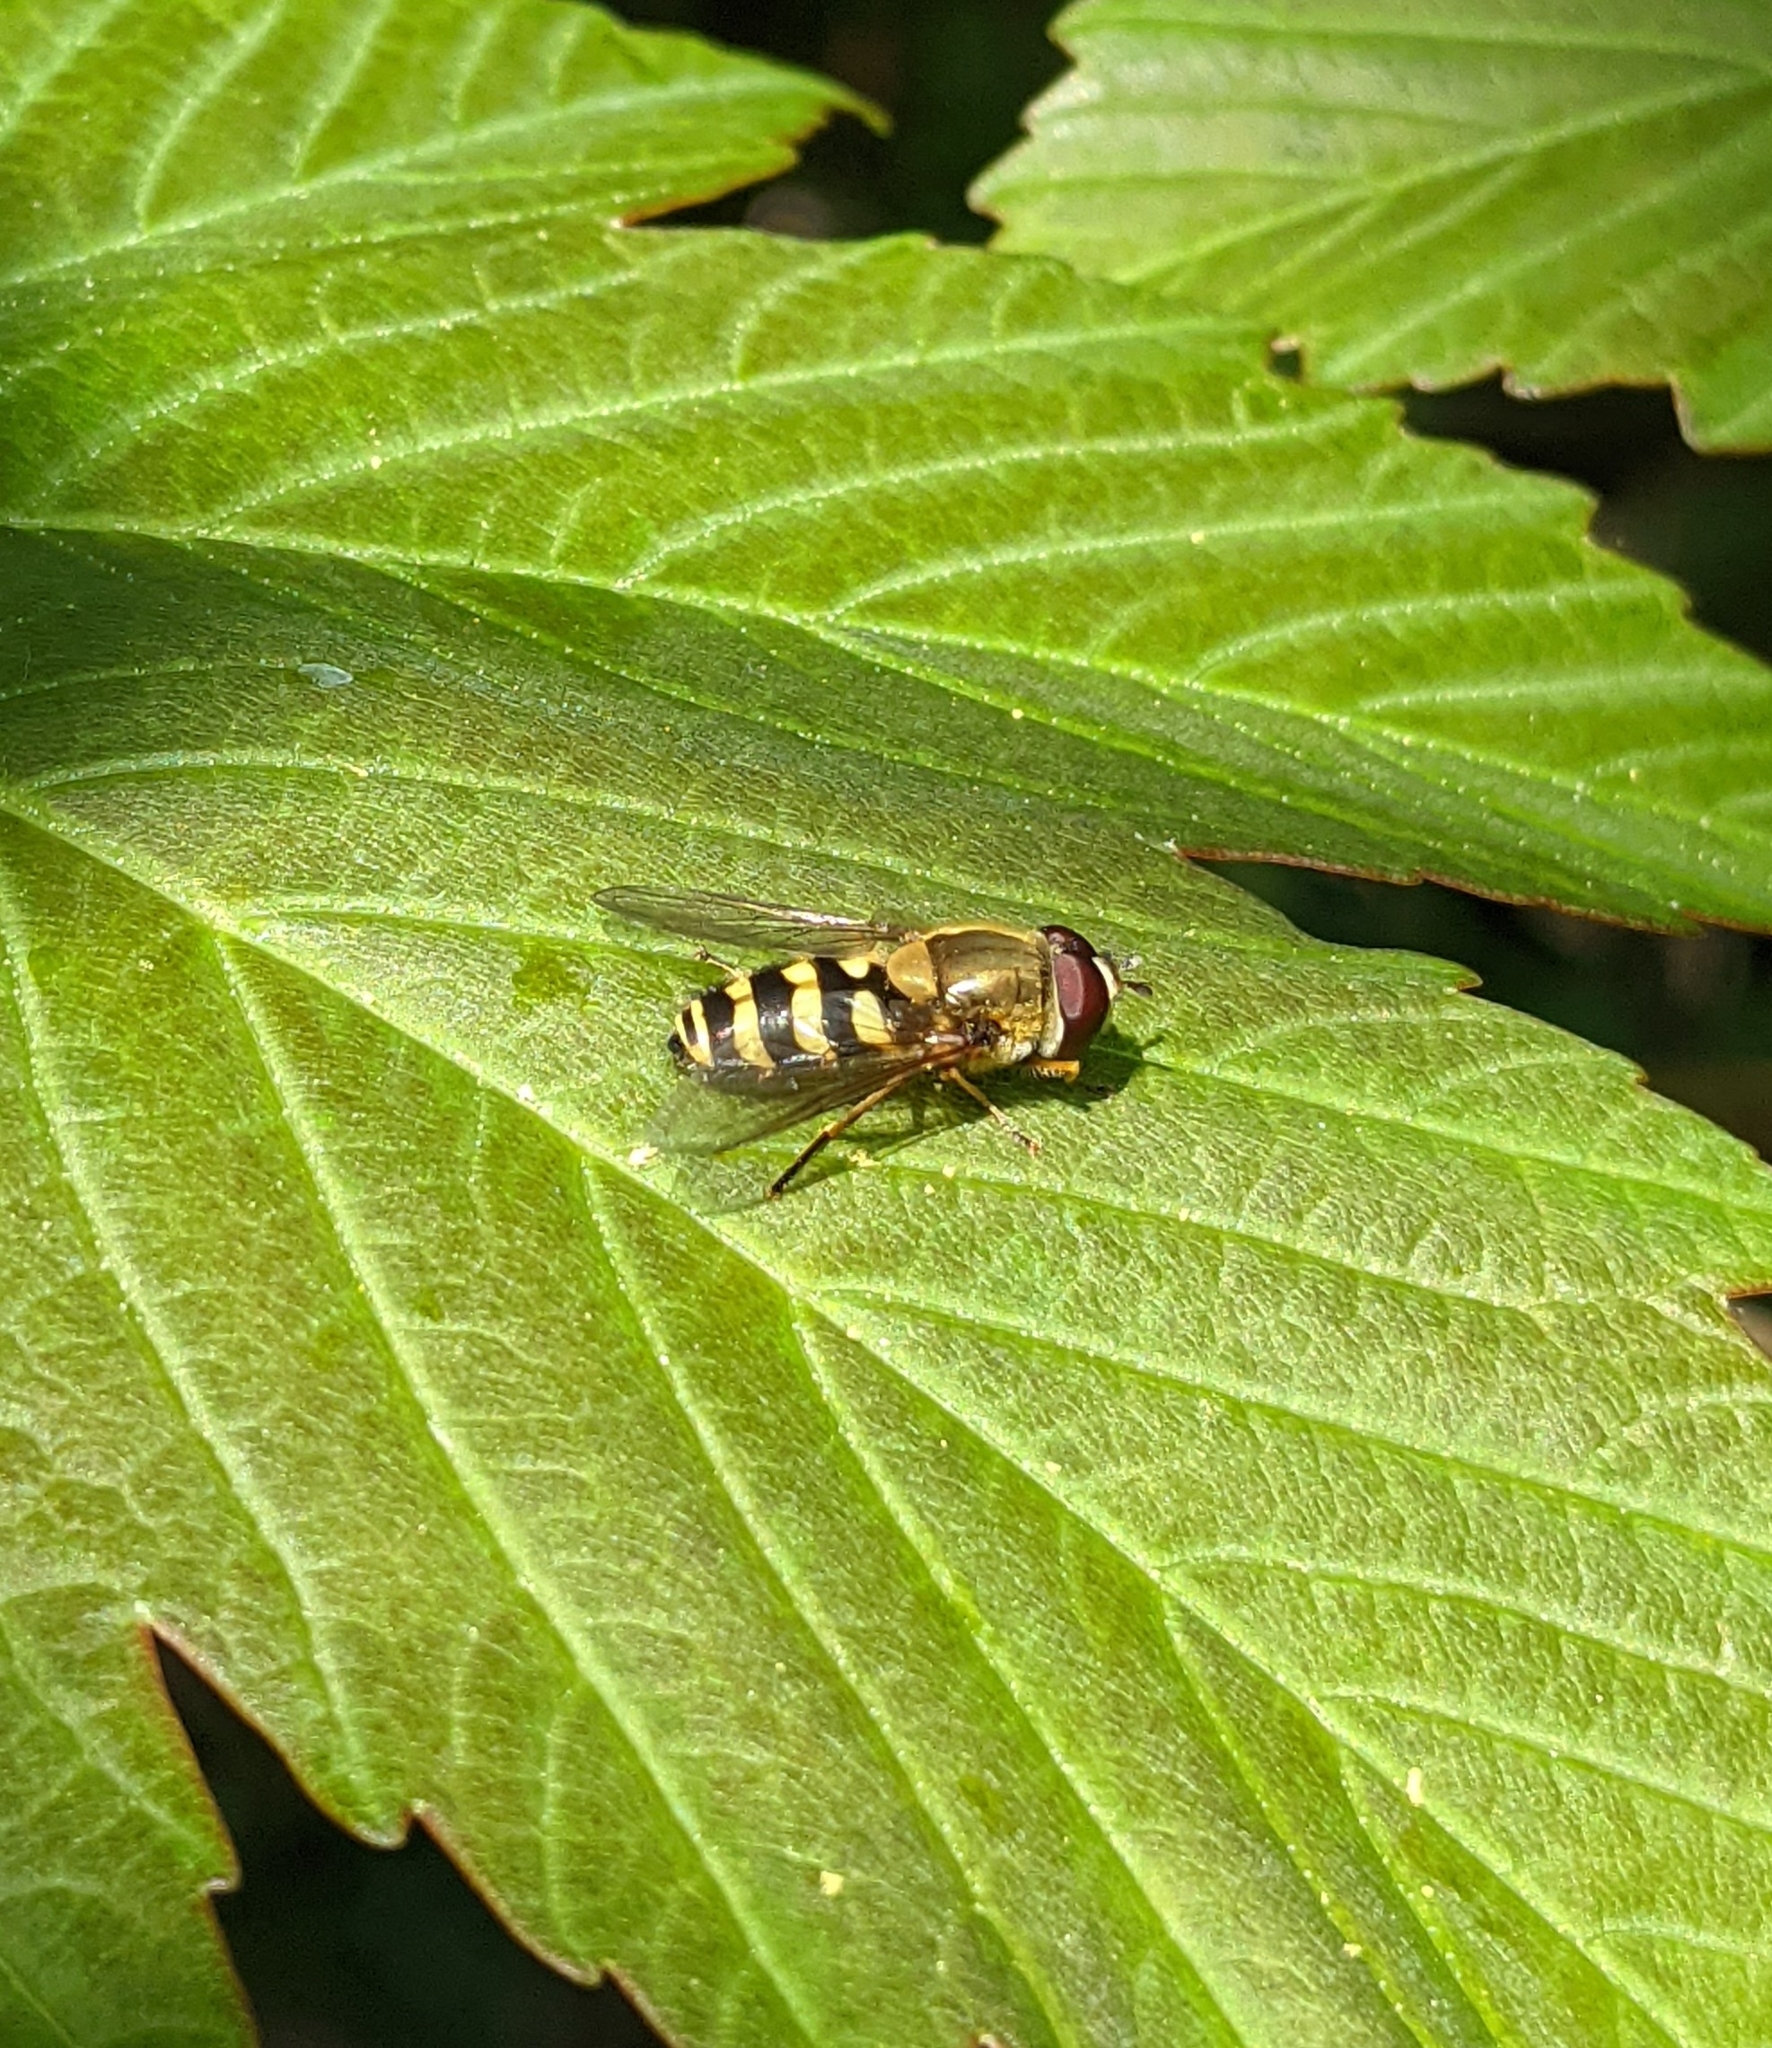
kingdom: Animalia
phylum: Arthropoda
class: Insecta
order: Diptera
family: Syrphidae
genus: Syrphus
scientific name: Syrphus
